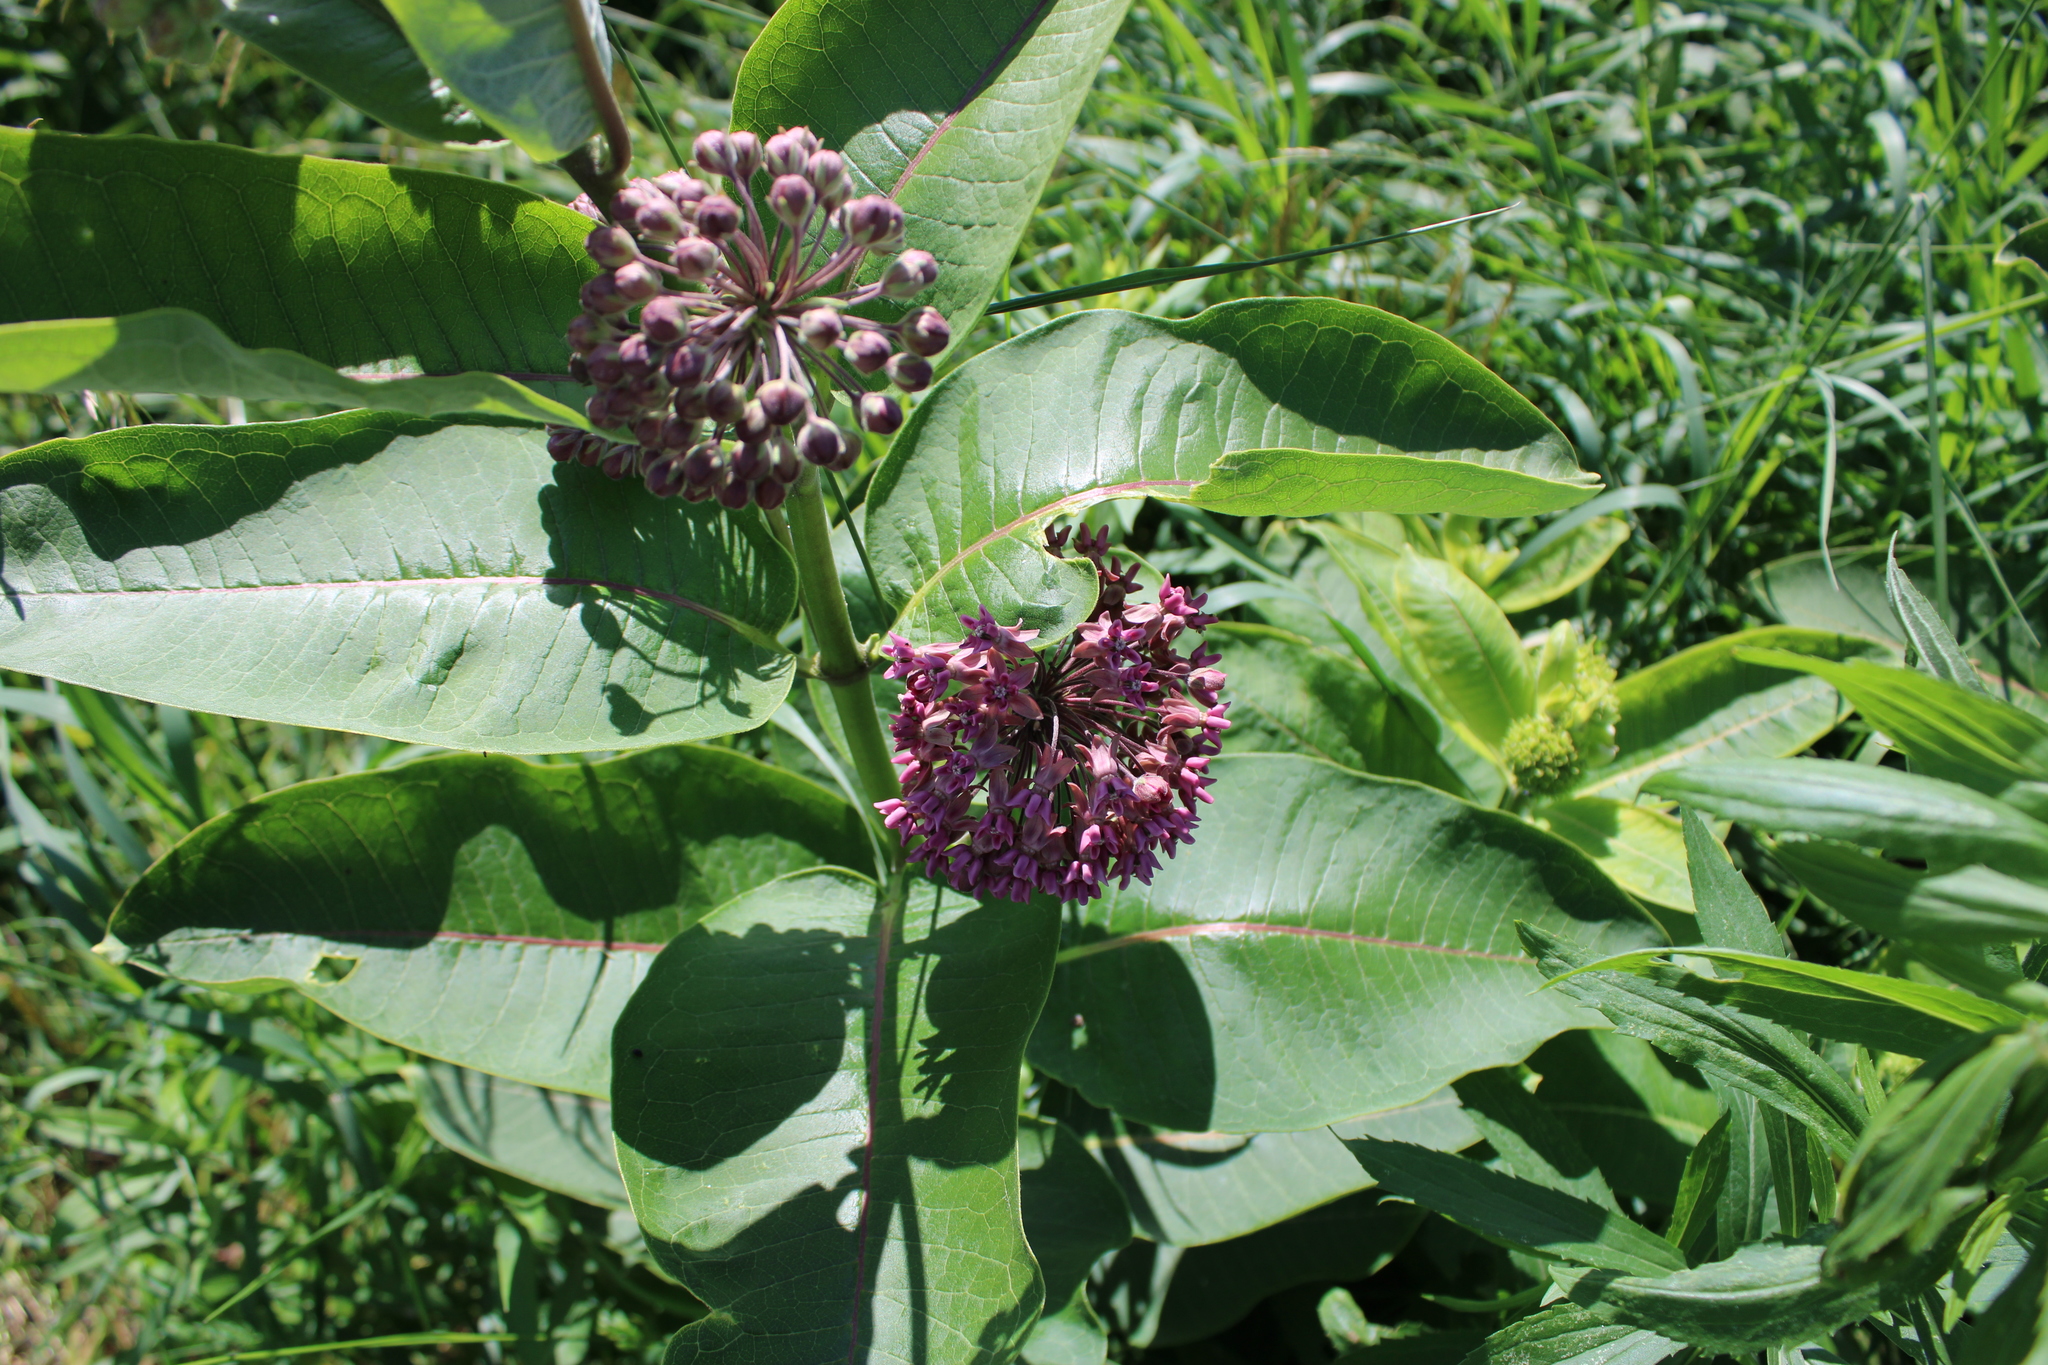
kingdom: Plantae
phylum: Tracheophyta
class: Magnoliopsida
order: Gentianales
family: Apocynaceae
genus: Asclepias
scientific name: Asclepias syriaca
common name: Common milkweed
